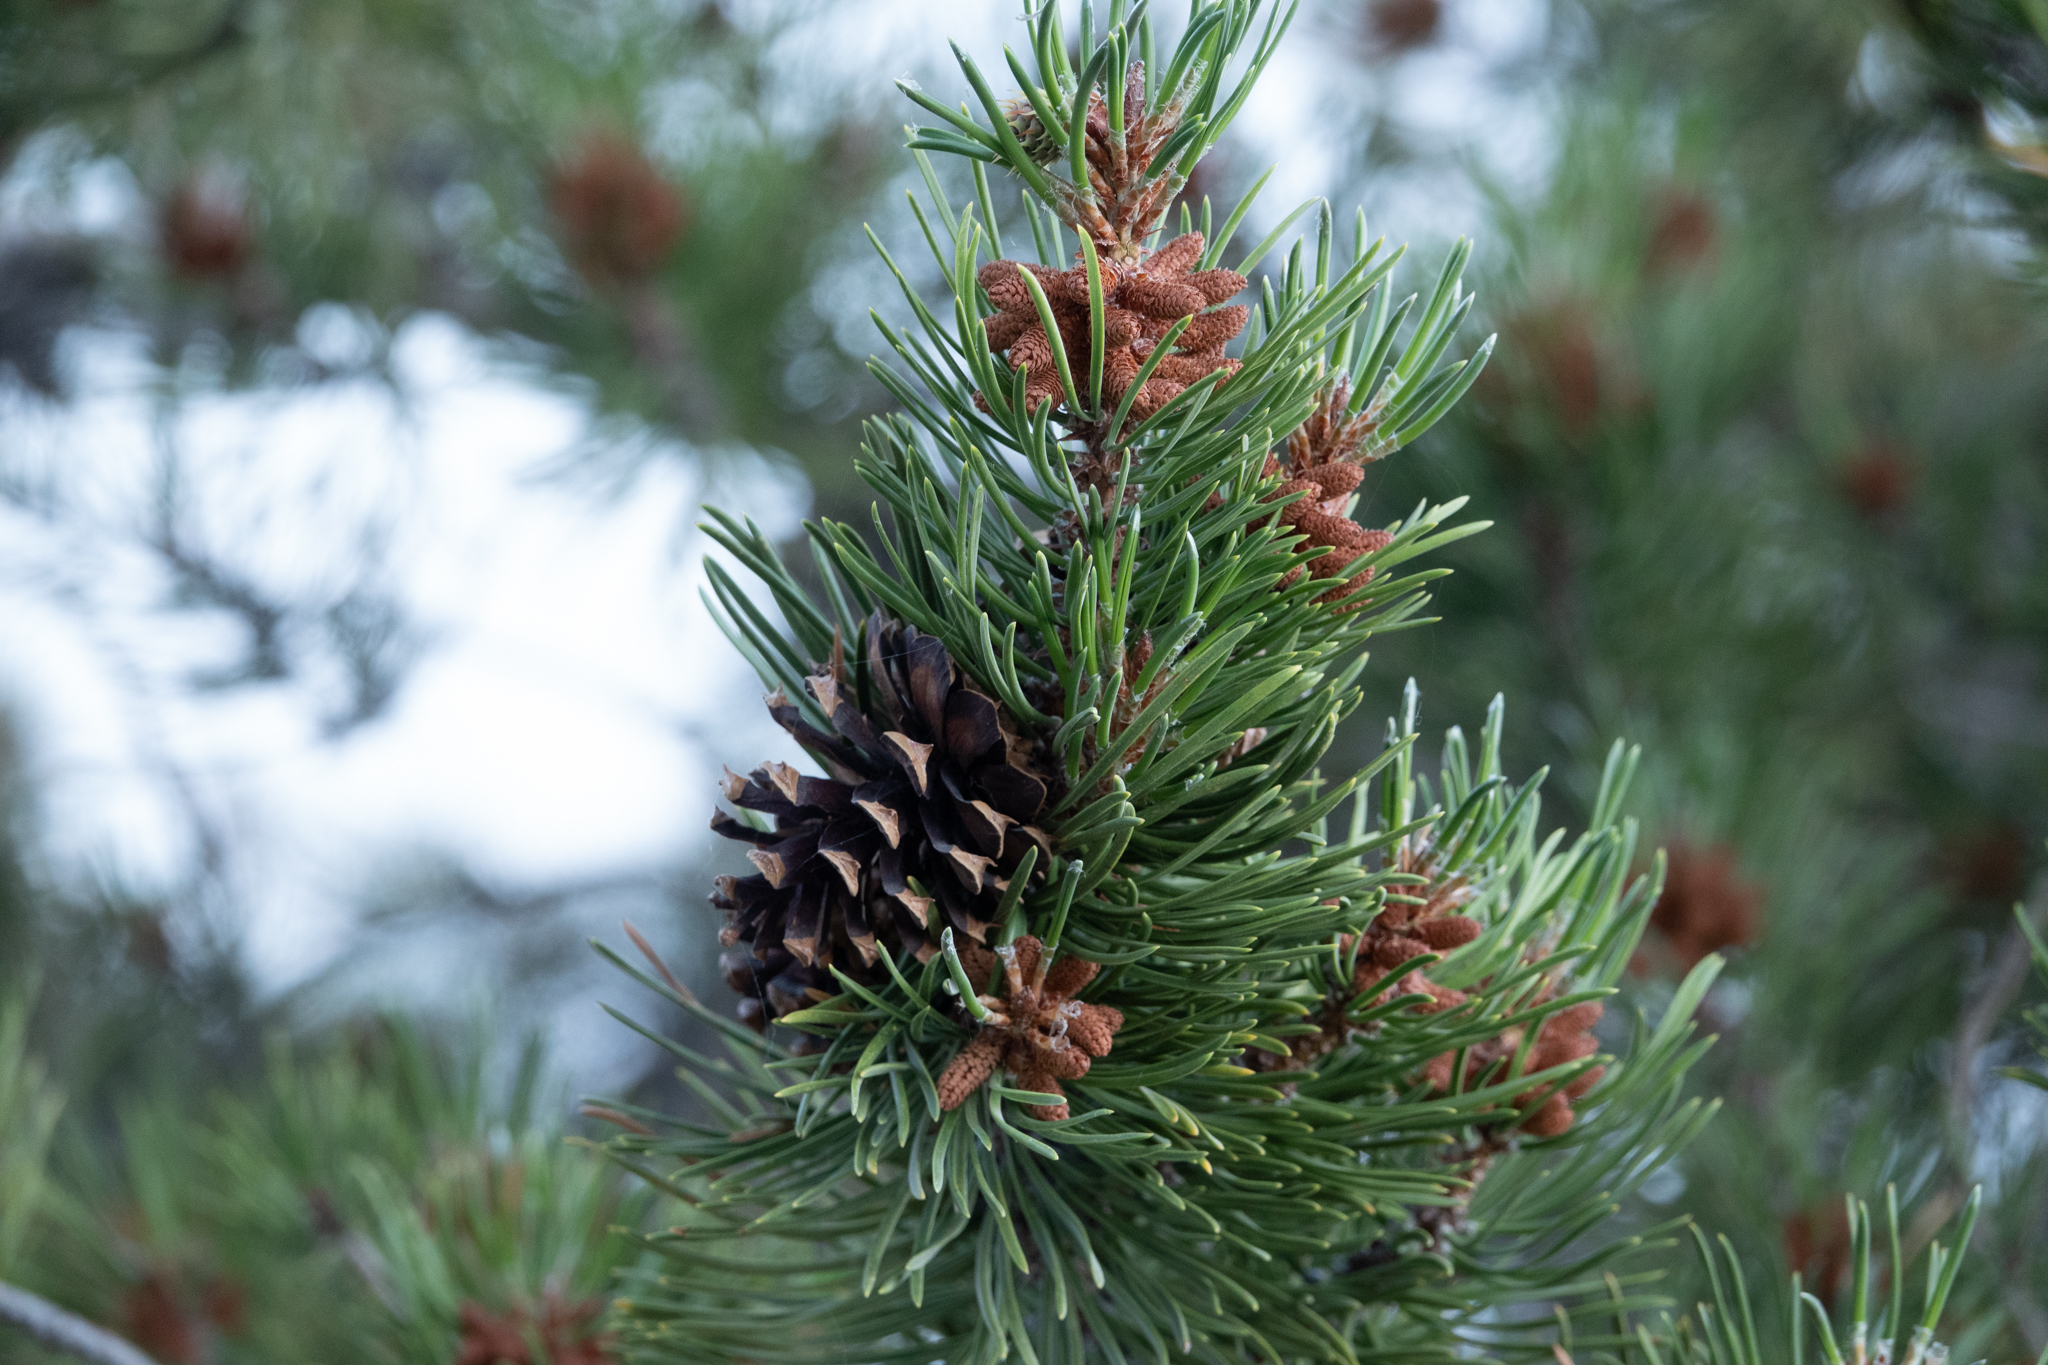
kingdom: Plantae
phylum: Tracheophyta
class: Pinopsida
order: Pinales
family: Pinaceae
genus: Pinus
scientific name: Pinus contorta
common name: Lodgepole pine
